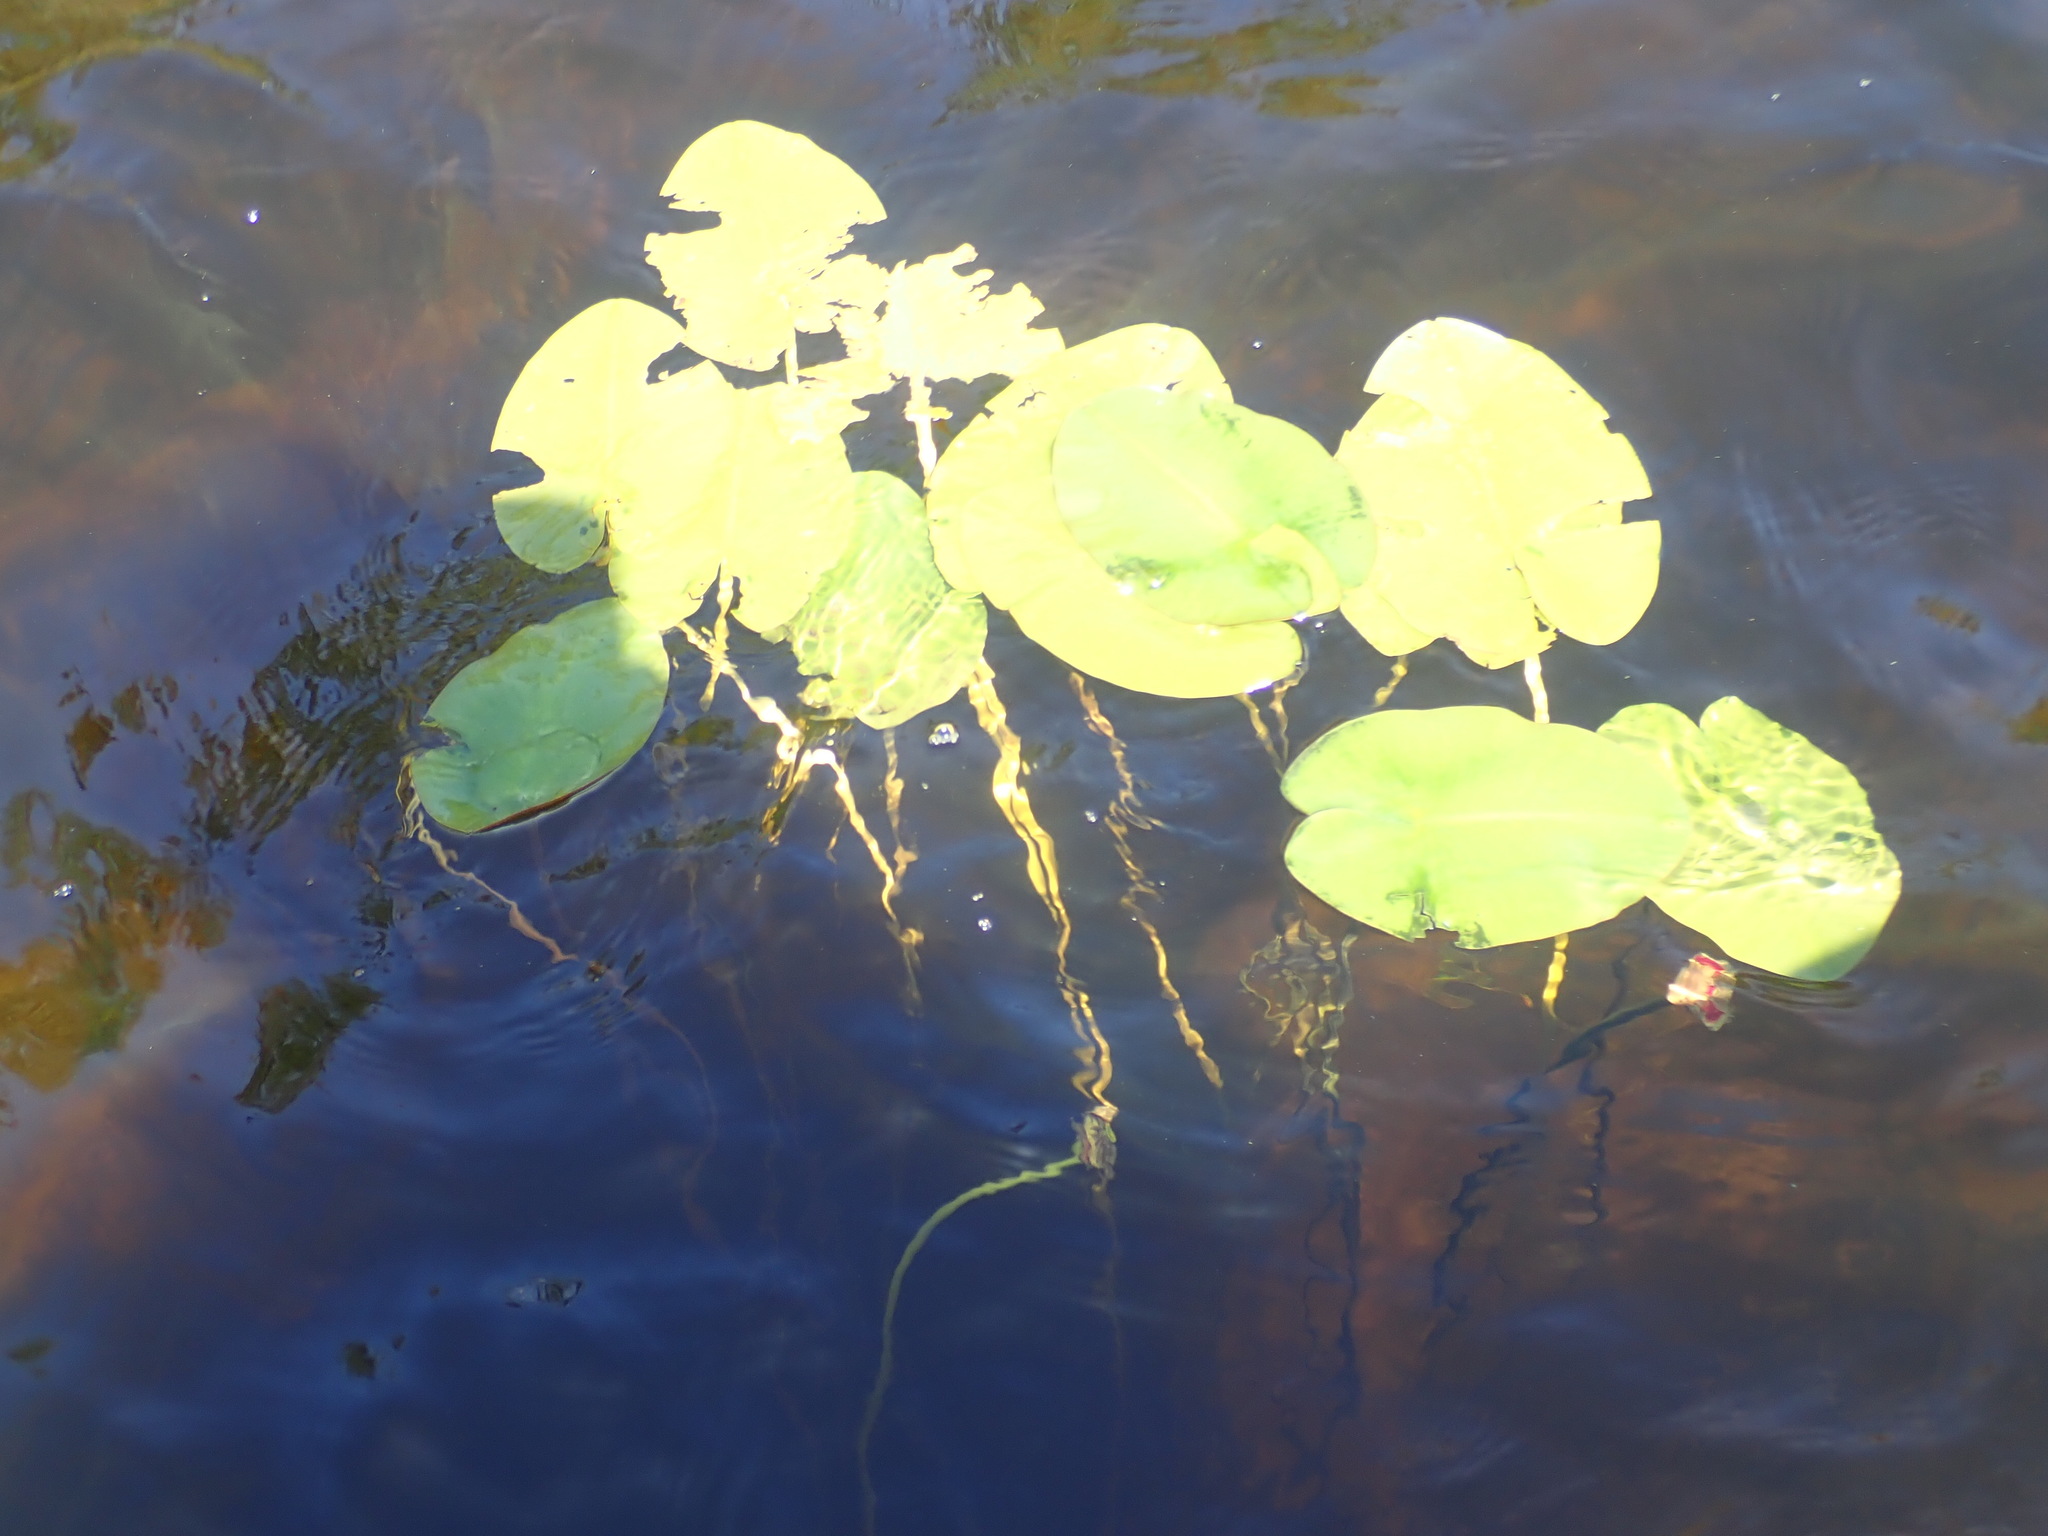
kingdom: Plantae
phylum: Tracheophyta
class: Magnoliopsida
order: Nymphaeales
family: Nymphaeaceae
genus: Nuphar
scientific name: Nuphar variegata
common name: Beaver-root
